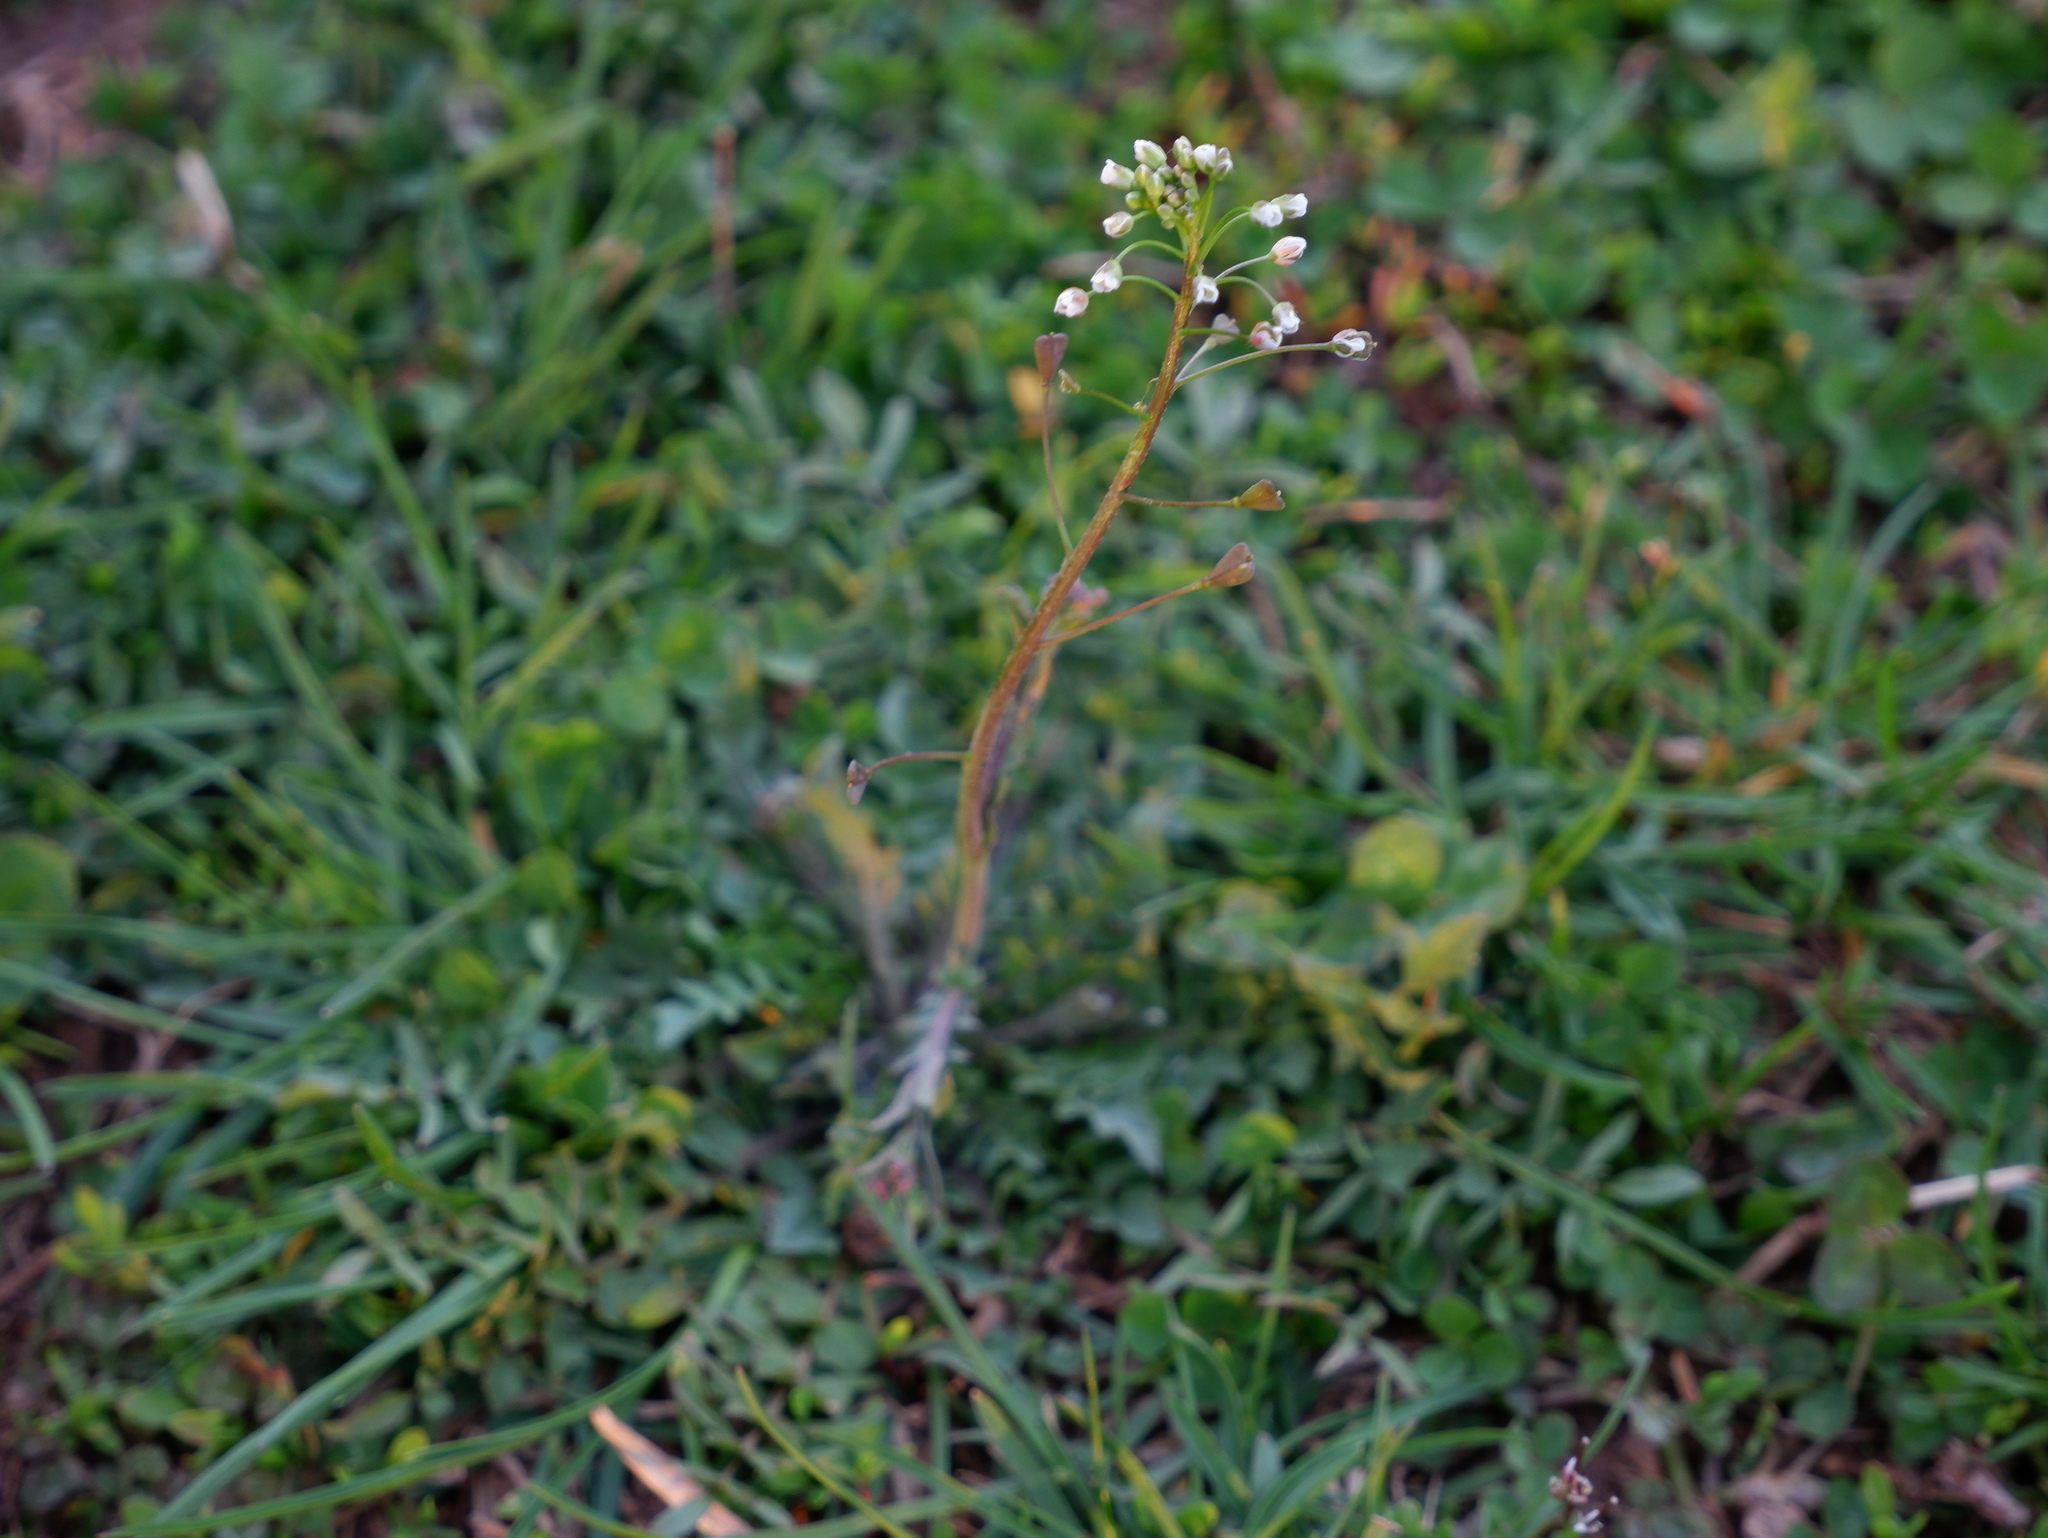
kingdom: Plantae
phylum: Tracheophyta
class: Magnoliopsida
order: Brassicales
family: Brassicaceae
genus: Capsella
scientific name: Capsella bursa-pastoris
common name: Shepherd's purse
